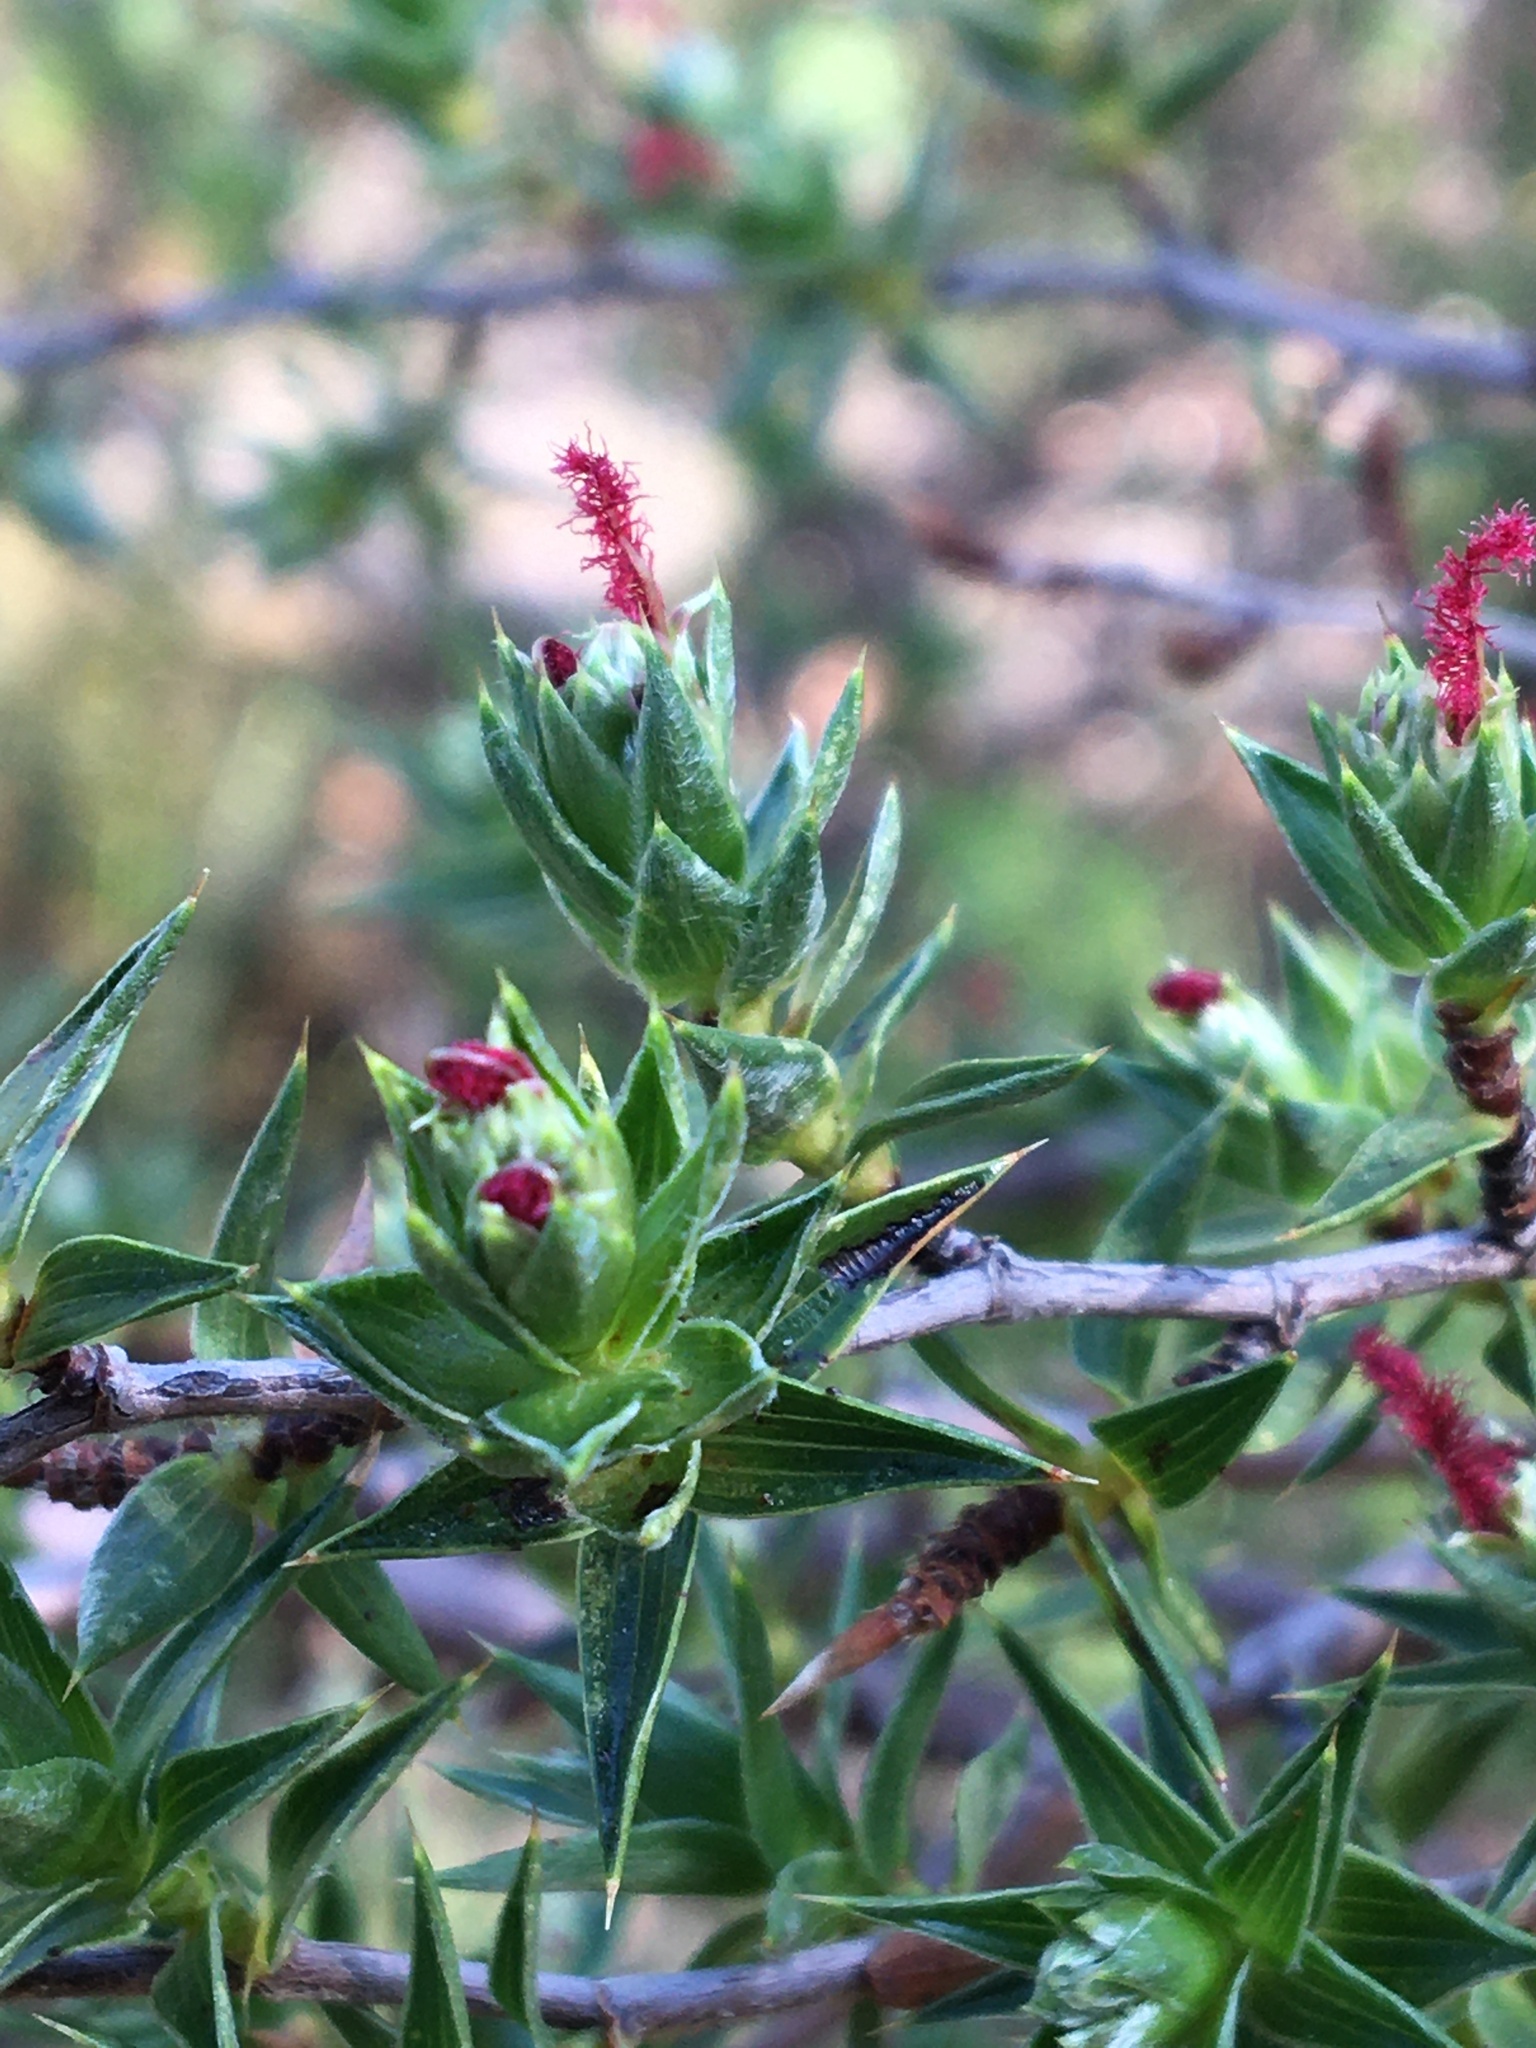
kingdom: Plantae
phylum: Tracheophyta
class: Magnoliopsida
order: Rosales
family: Rosaceae
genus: Cliffortia
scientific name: Cliffortia ruscifolia
